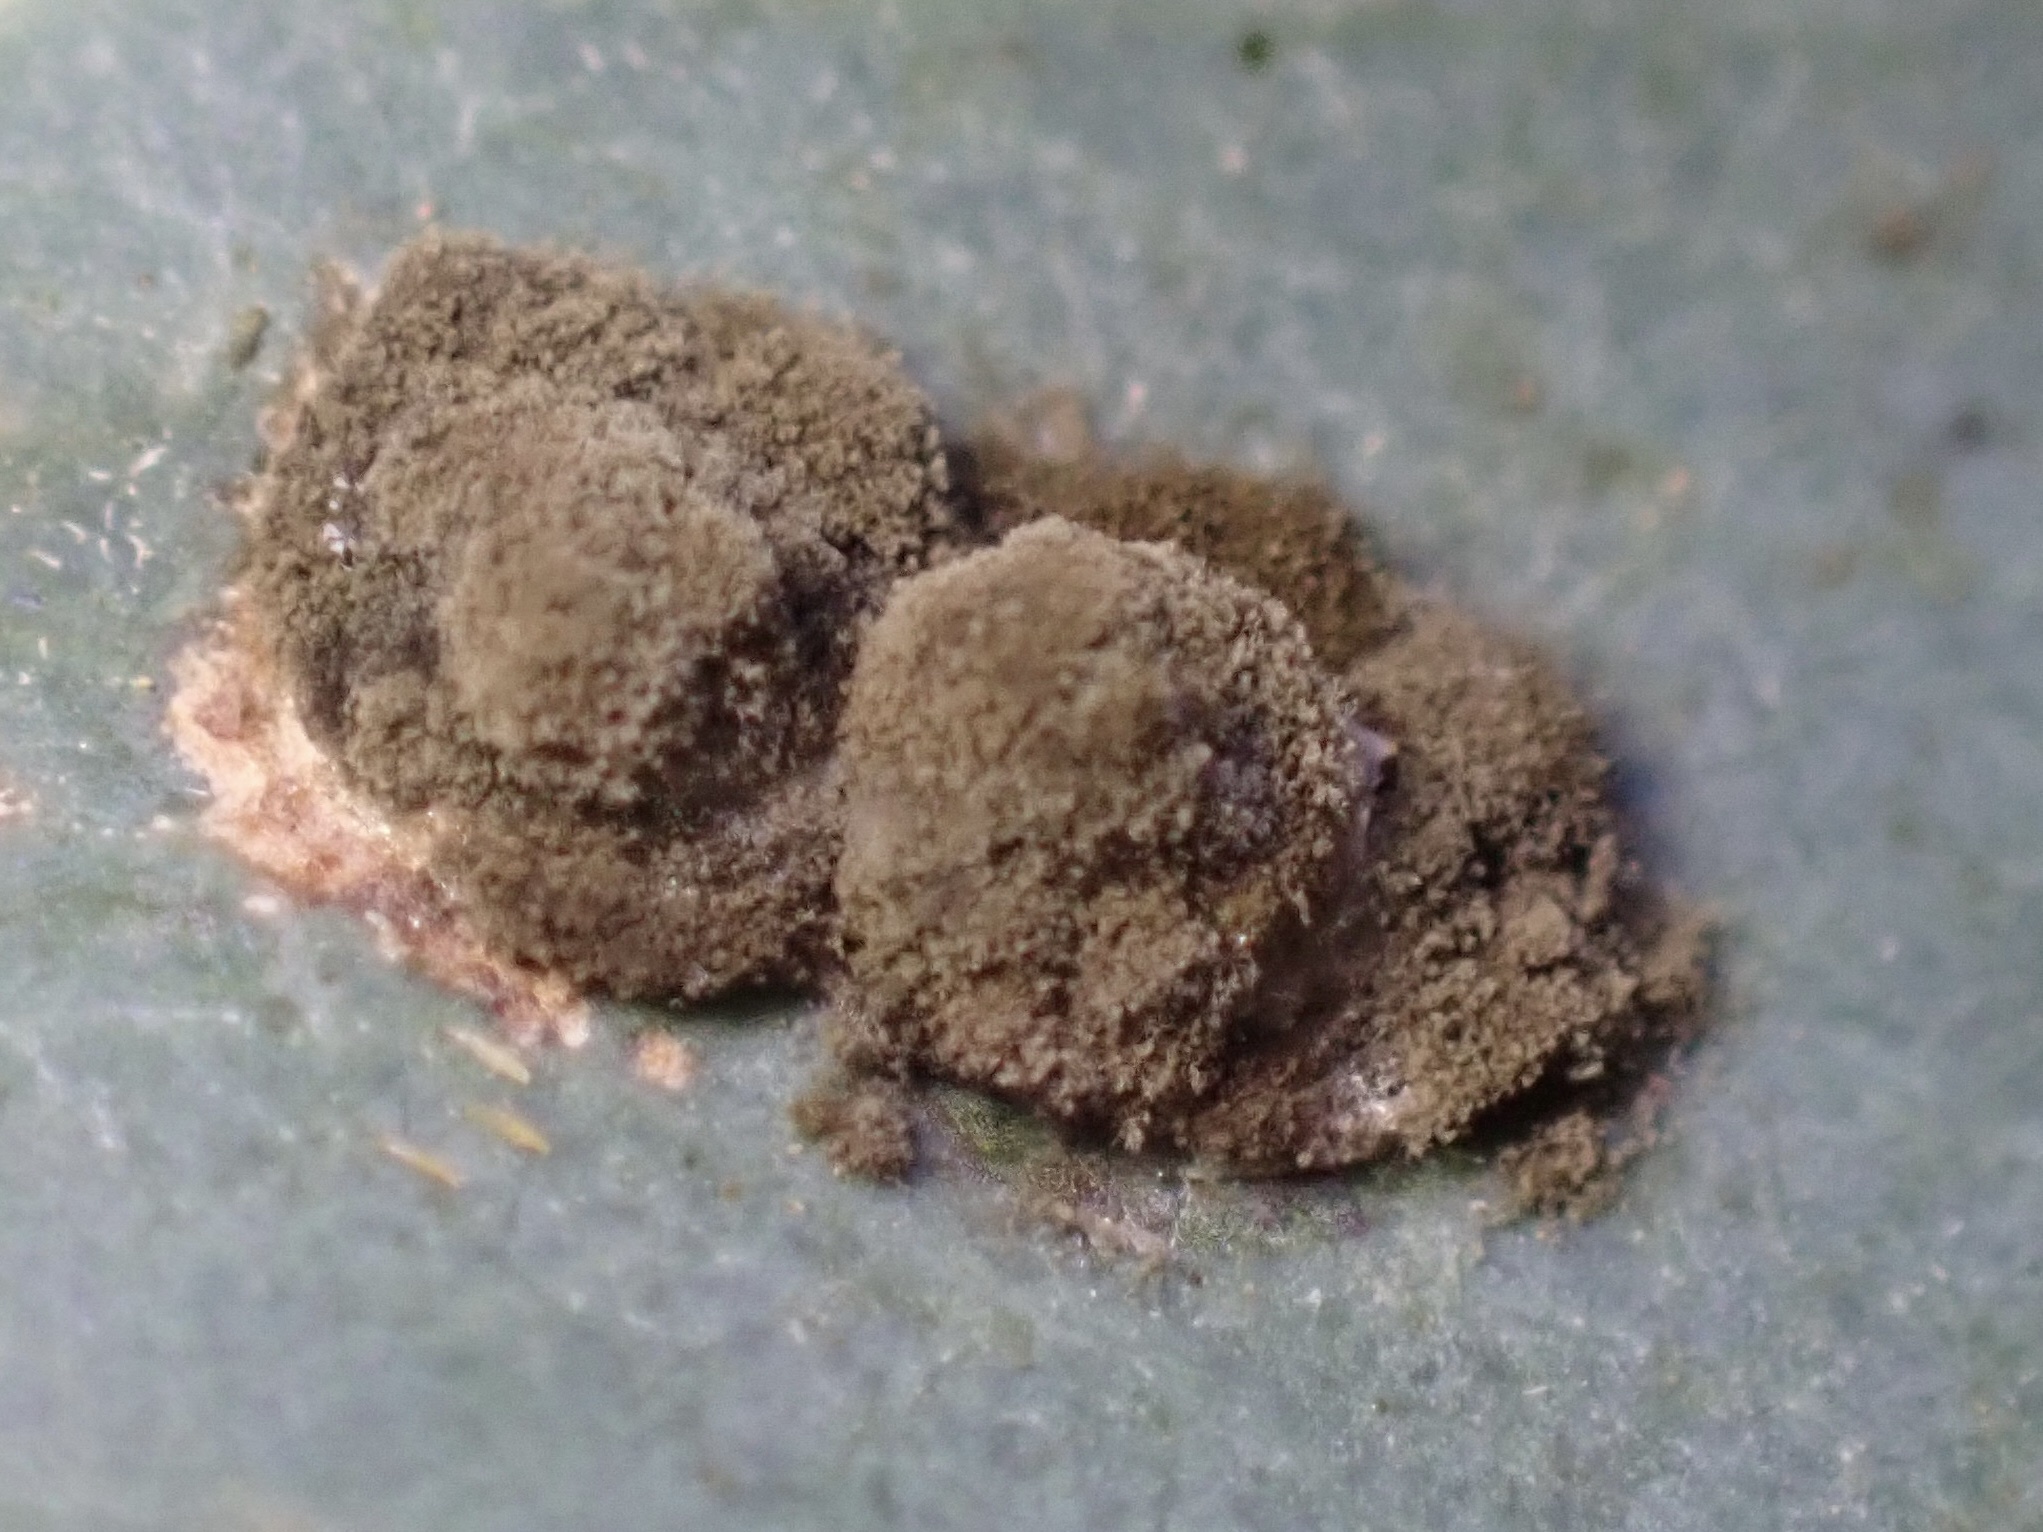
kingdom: Animalia
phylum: Arthropoda
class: Insecta
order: Hemiptera
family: Aphalaridae
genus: Glycaspis
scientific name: Glycaspis brimblecombei
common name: Red gum lerp psyllid
